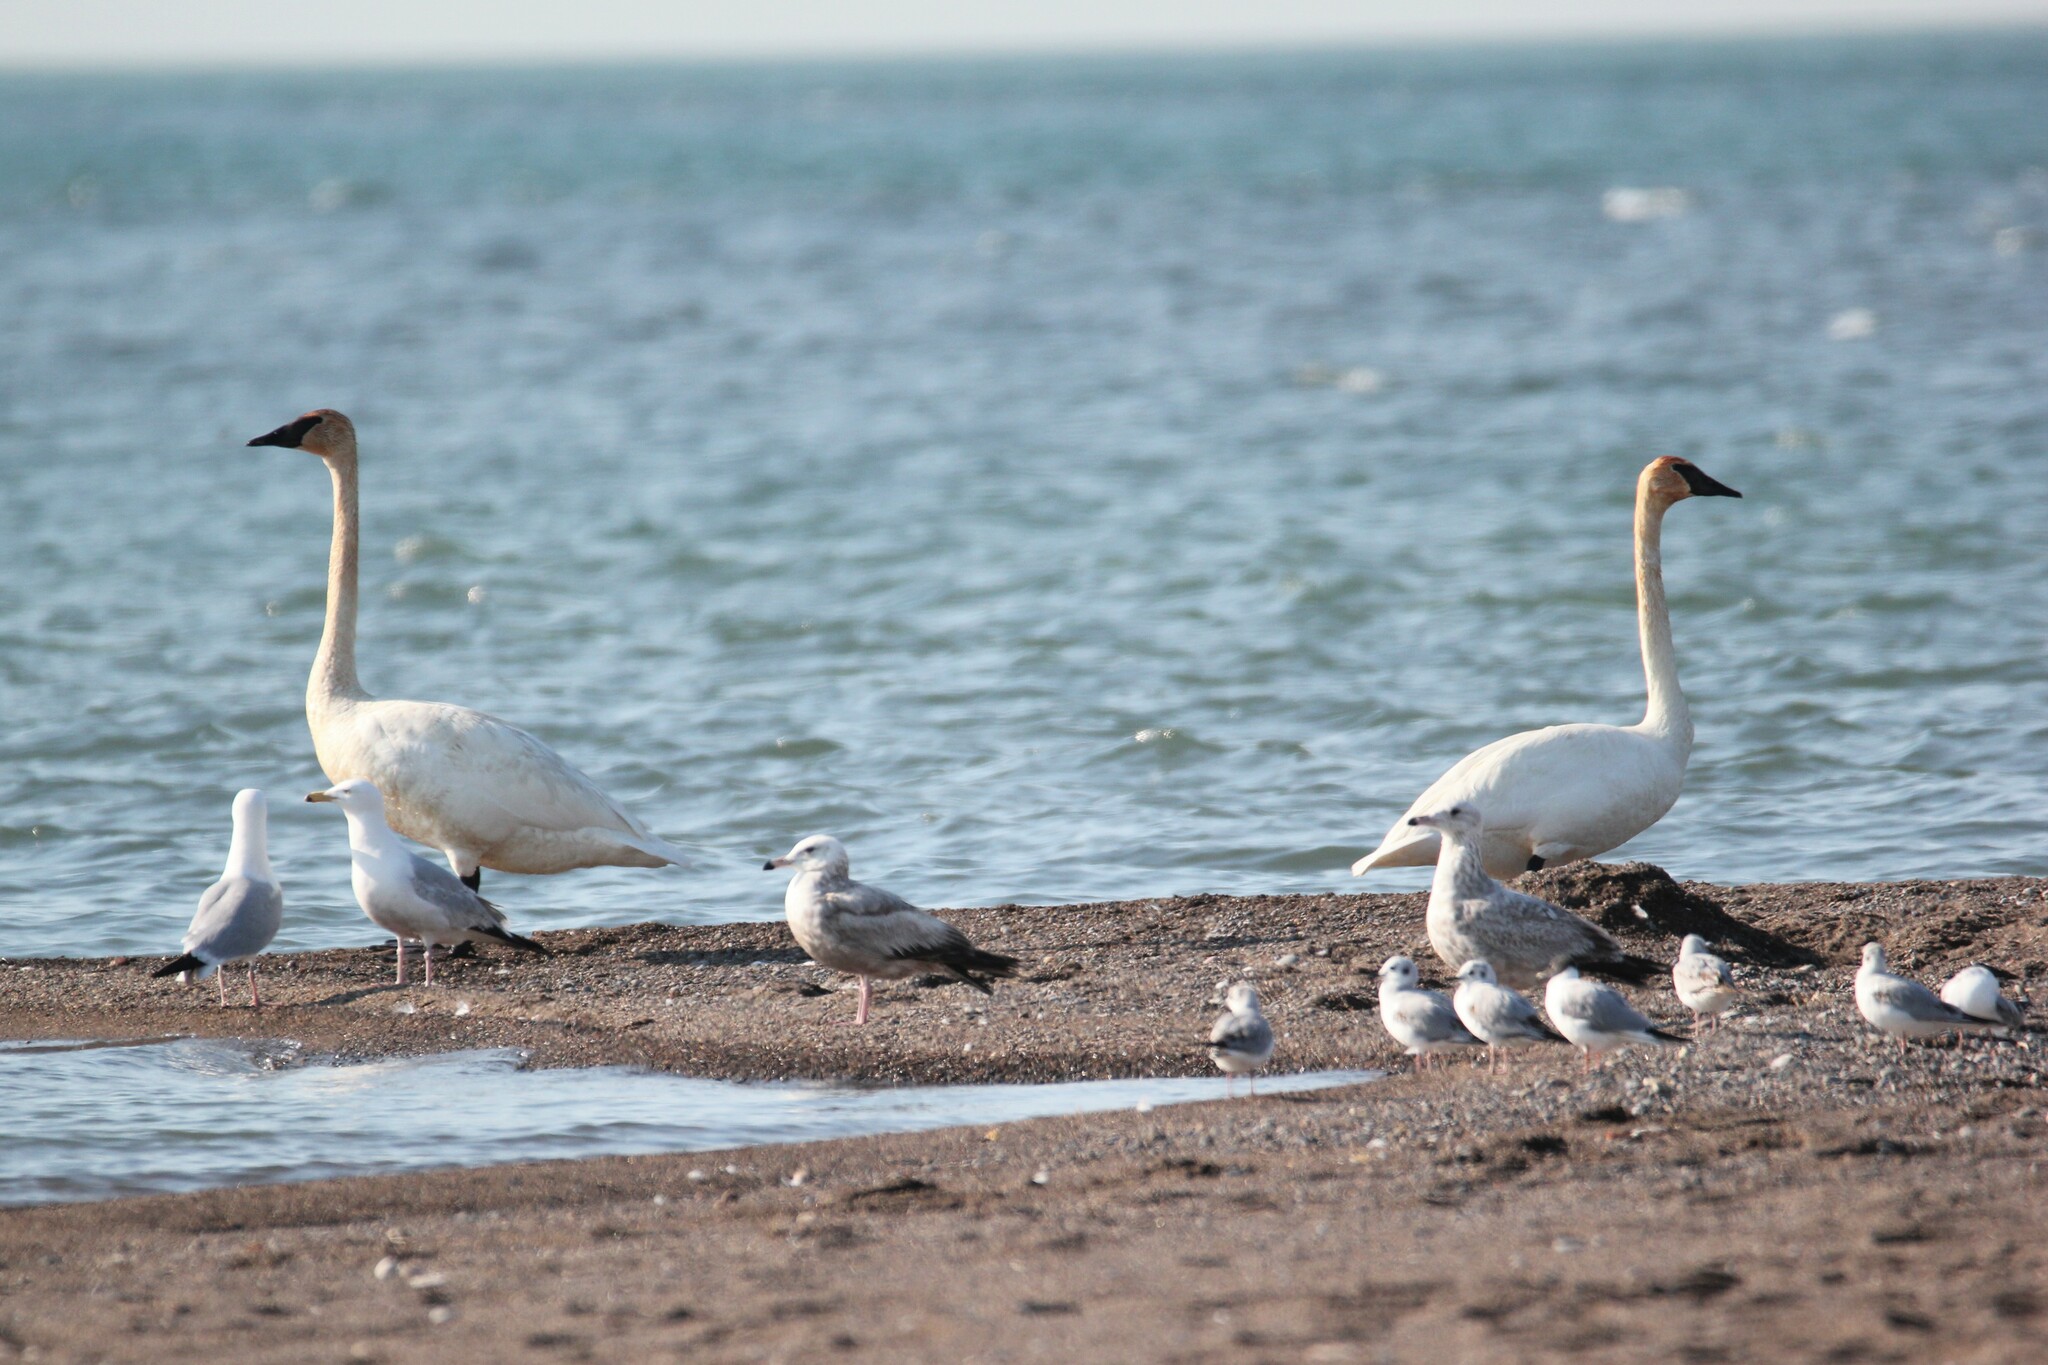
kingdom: Animalia
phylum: Chordata
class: Aves
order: Anseriformes
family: Anatidae
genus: Cygnus
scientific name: Cygnus buccinator
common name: Trumpeter swan
